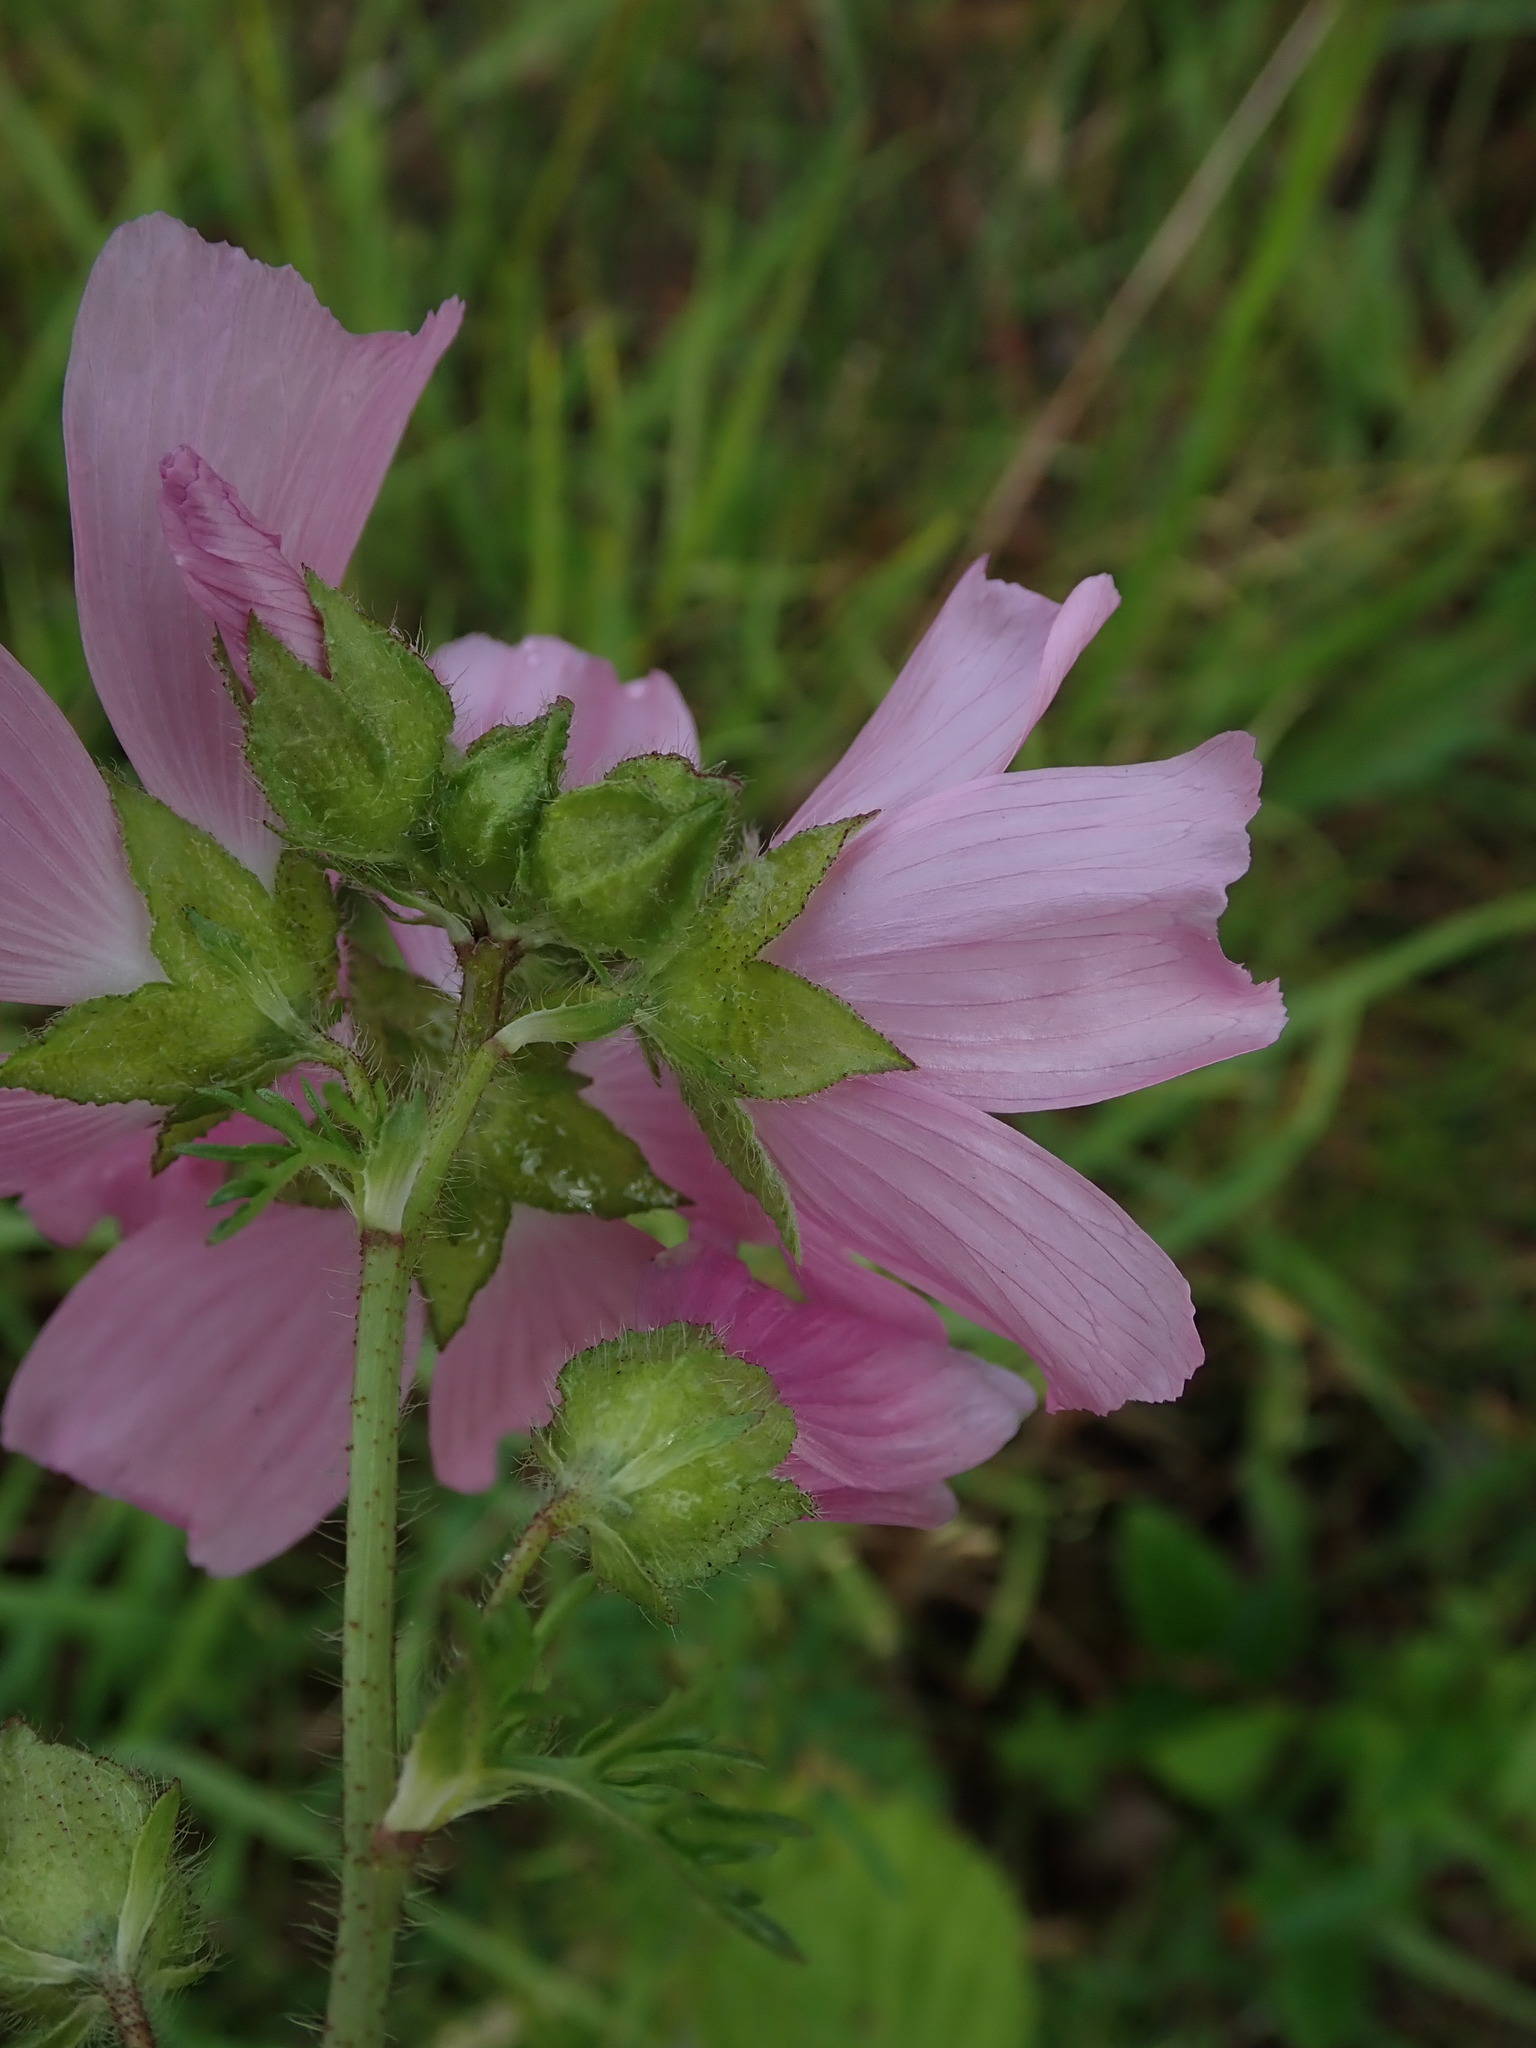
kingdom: Plantae
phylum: Tracheophyta
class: Magnoliopsida
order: Malvales
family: Malvaceae
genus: Malva
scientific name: Malva moschata
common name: Musk mallow
